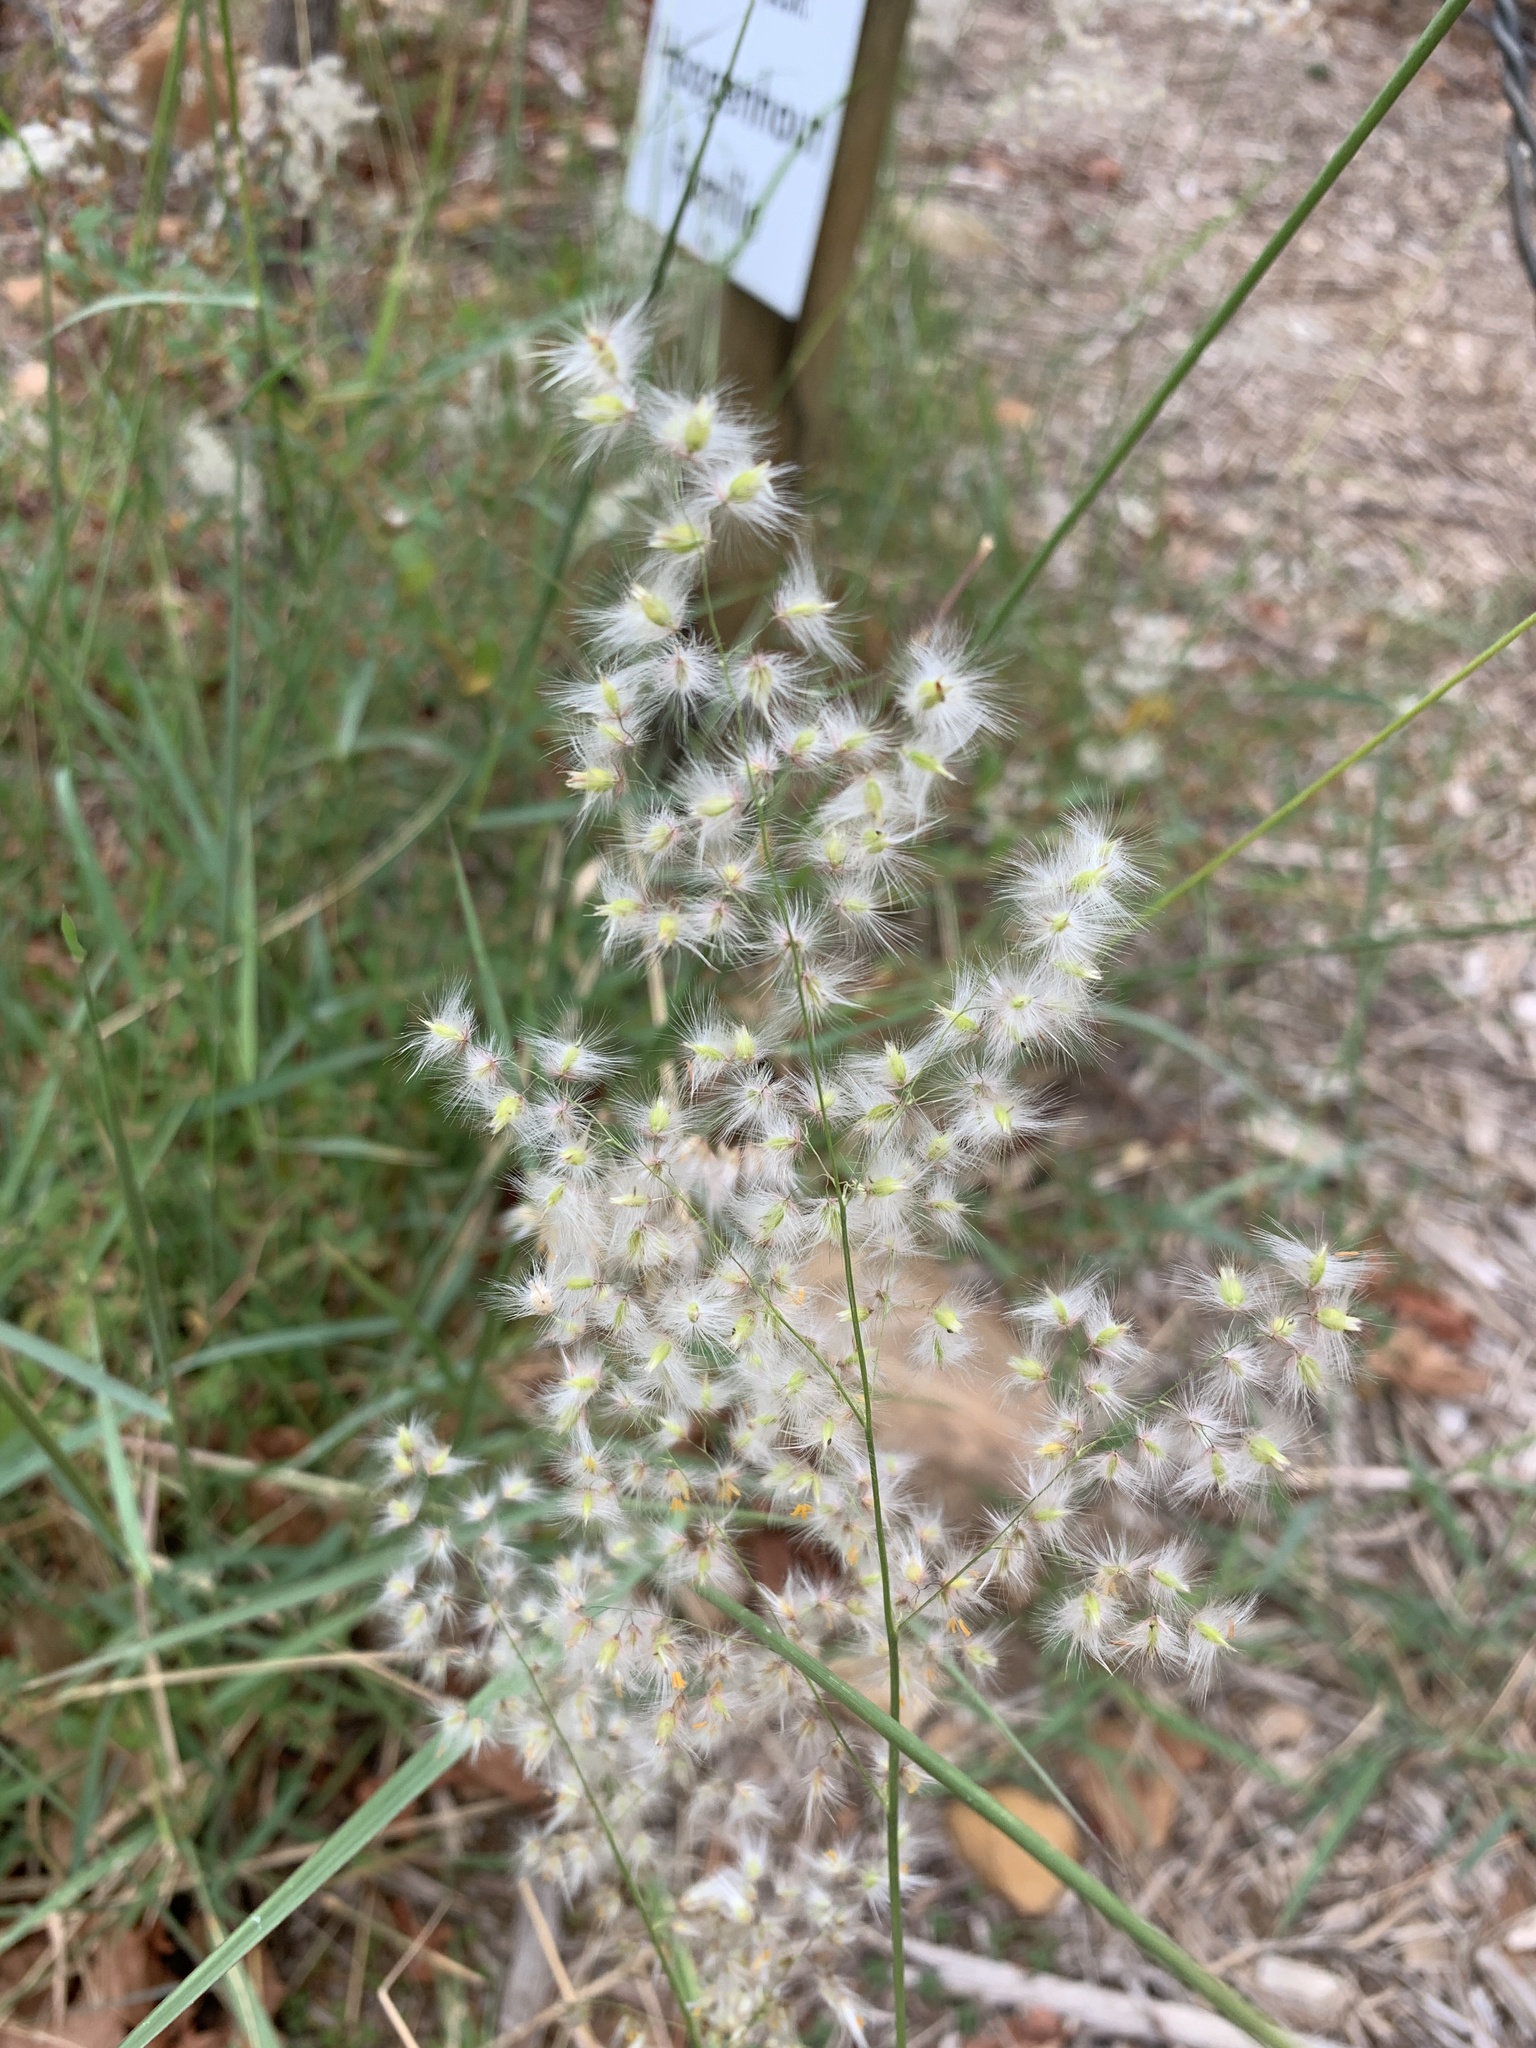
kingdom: Plantae
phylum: Tracheophyta
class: Liliopsida
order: Poales
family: Poaceae
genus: Melinis
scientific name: Melinis repens
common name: Rose natal grass
